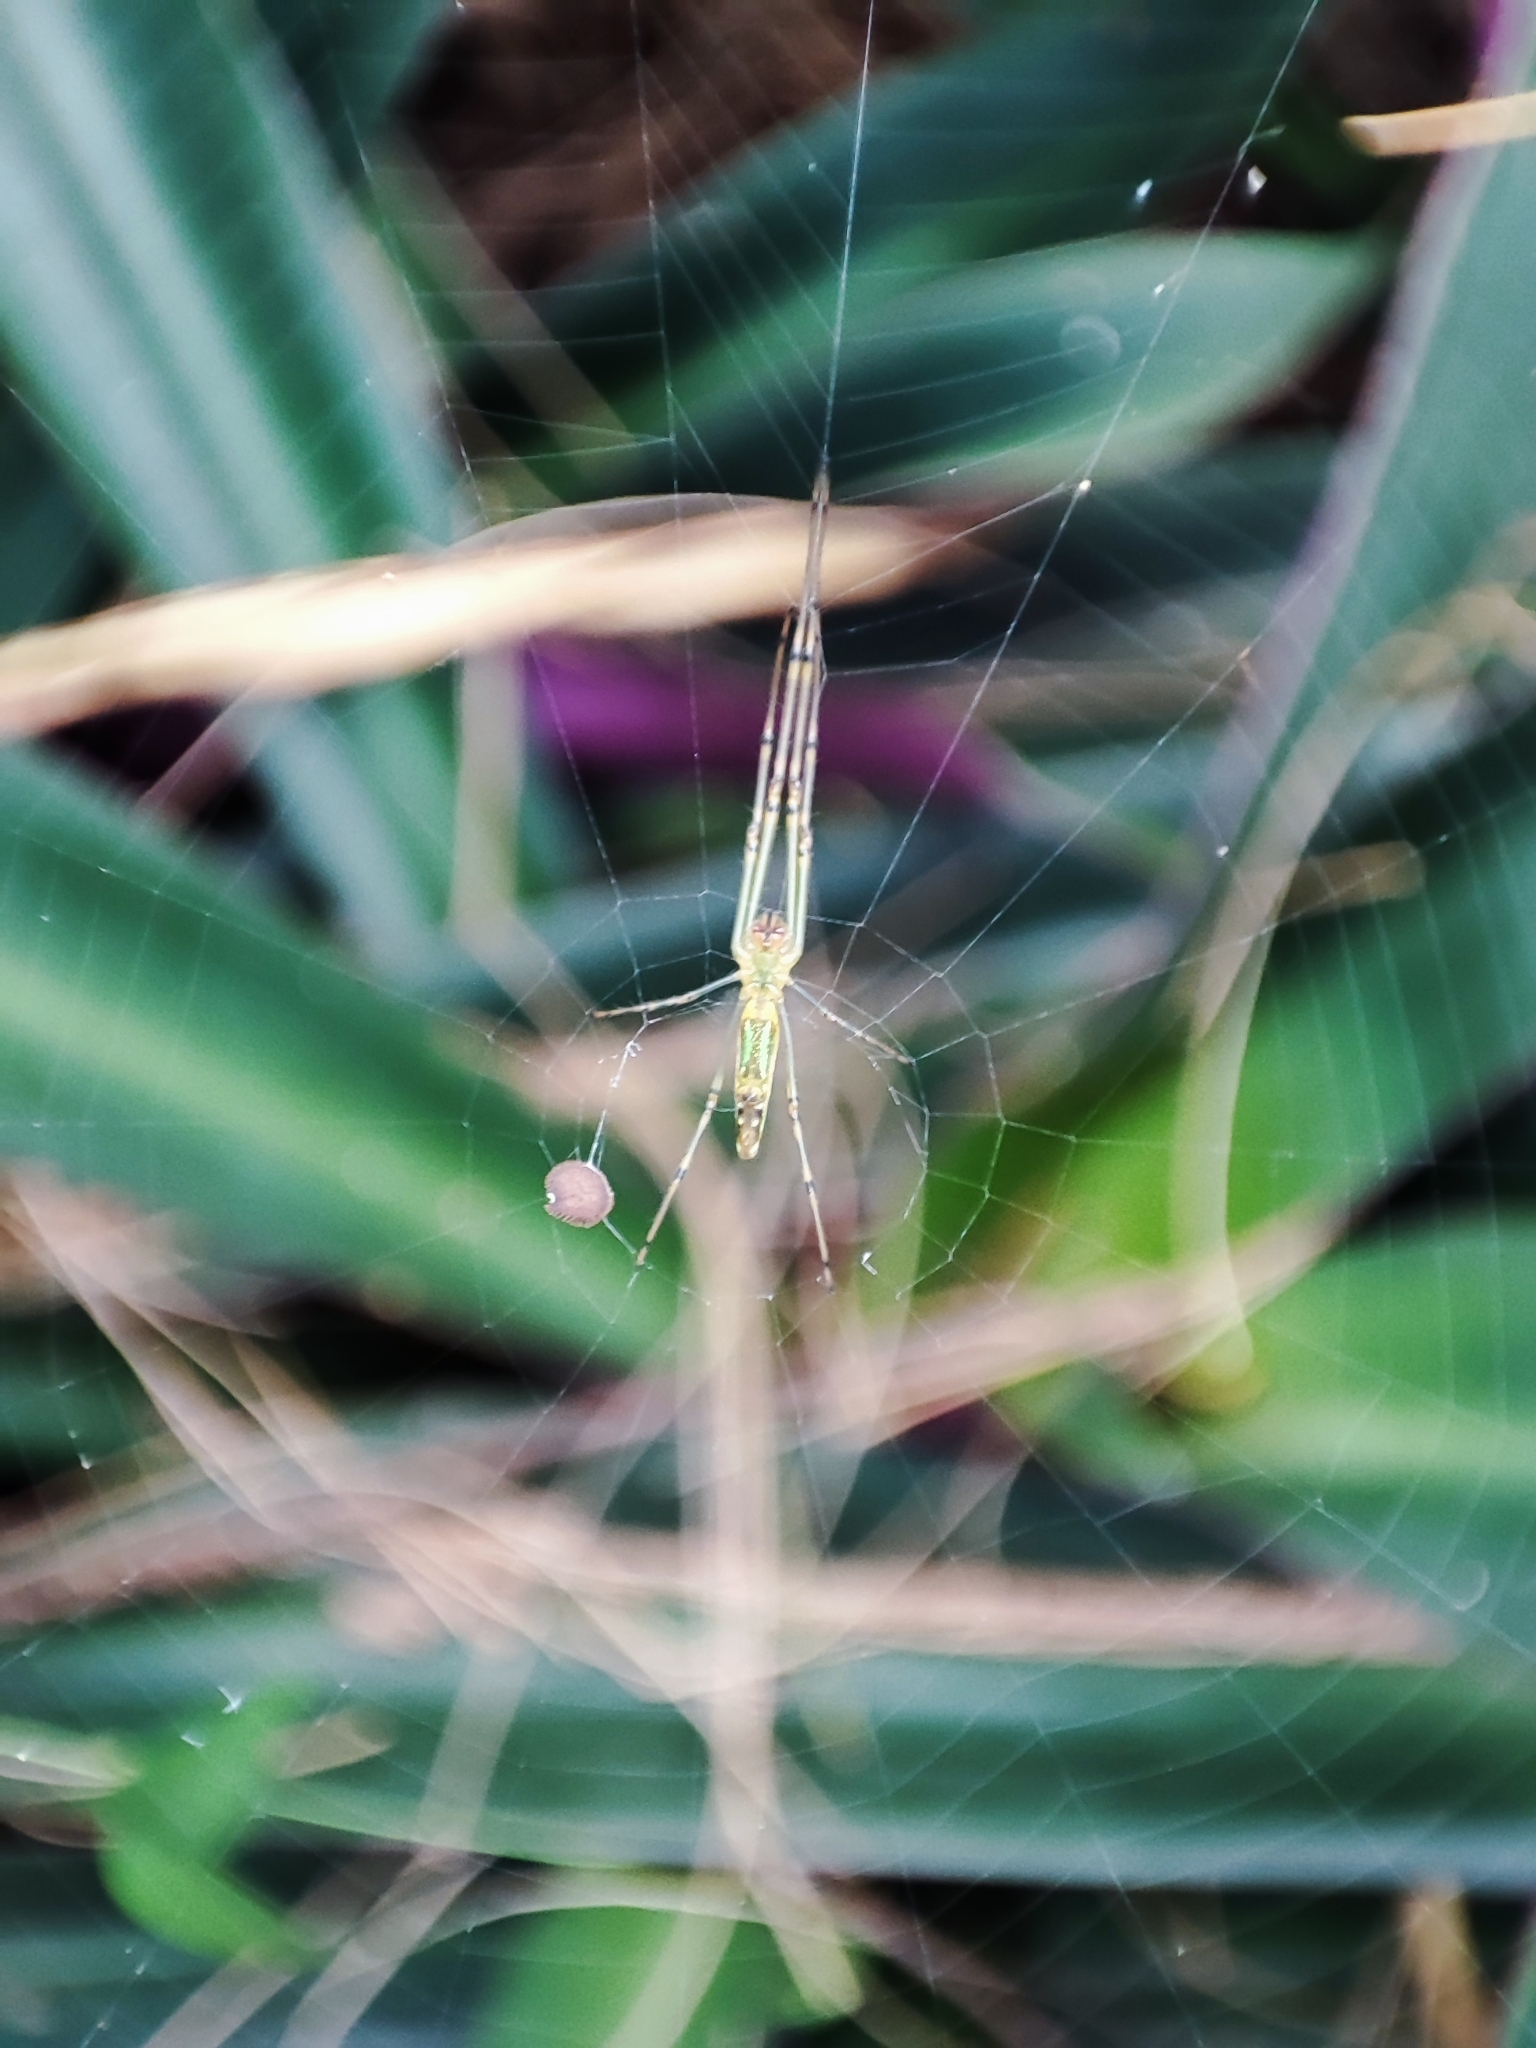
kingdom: Animalia
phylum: Arthropoda
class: Arachnida
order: Araneae
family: Tetragnathidae
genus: Leucauge
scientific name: Leucauge decorata
